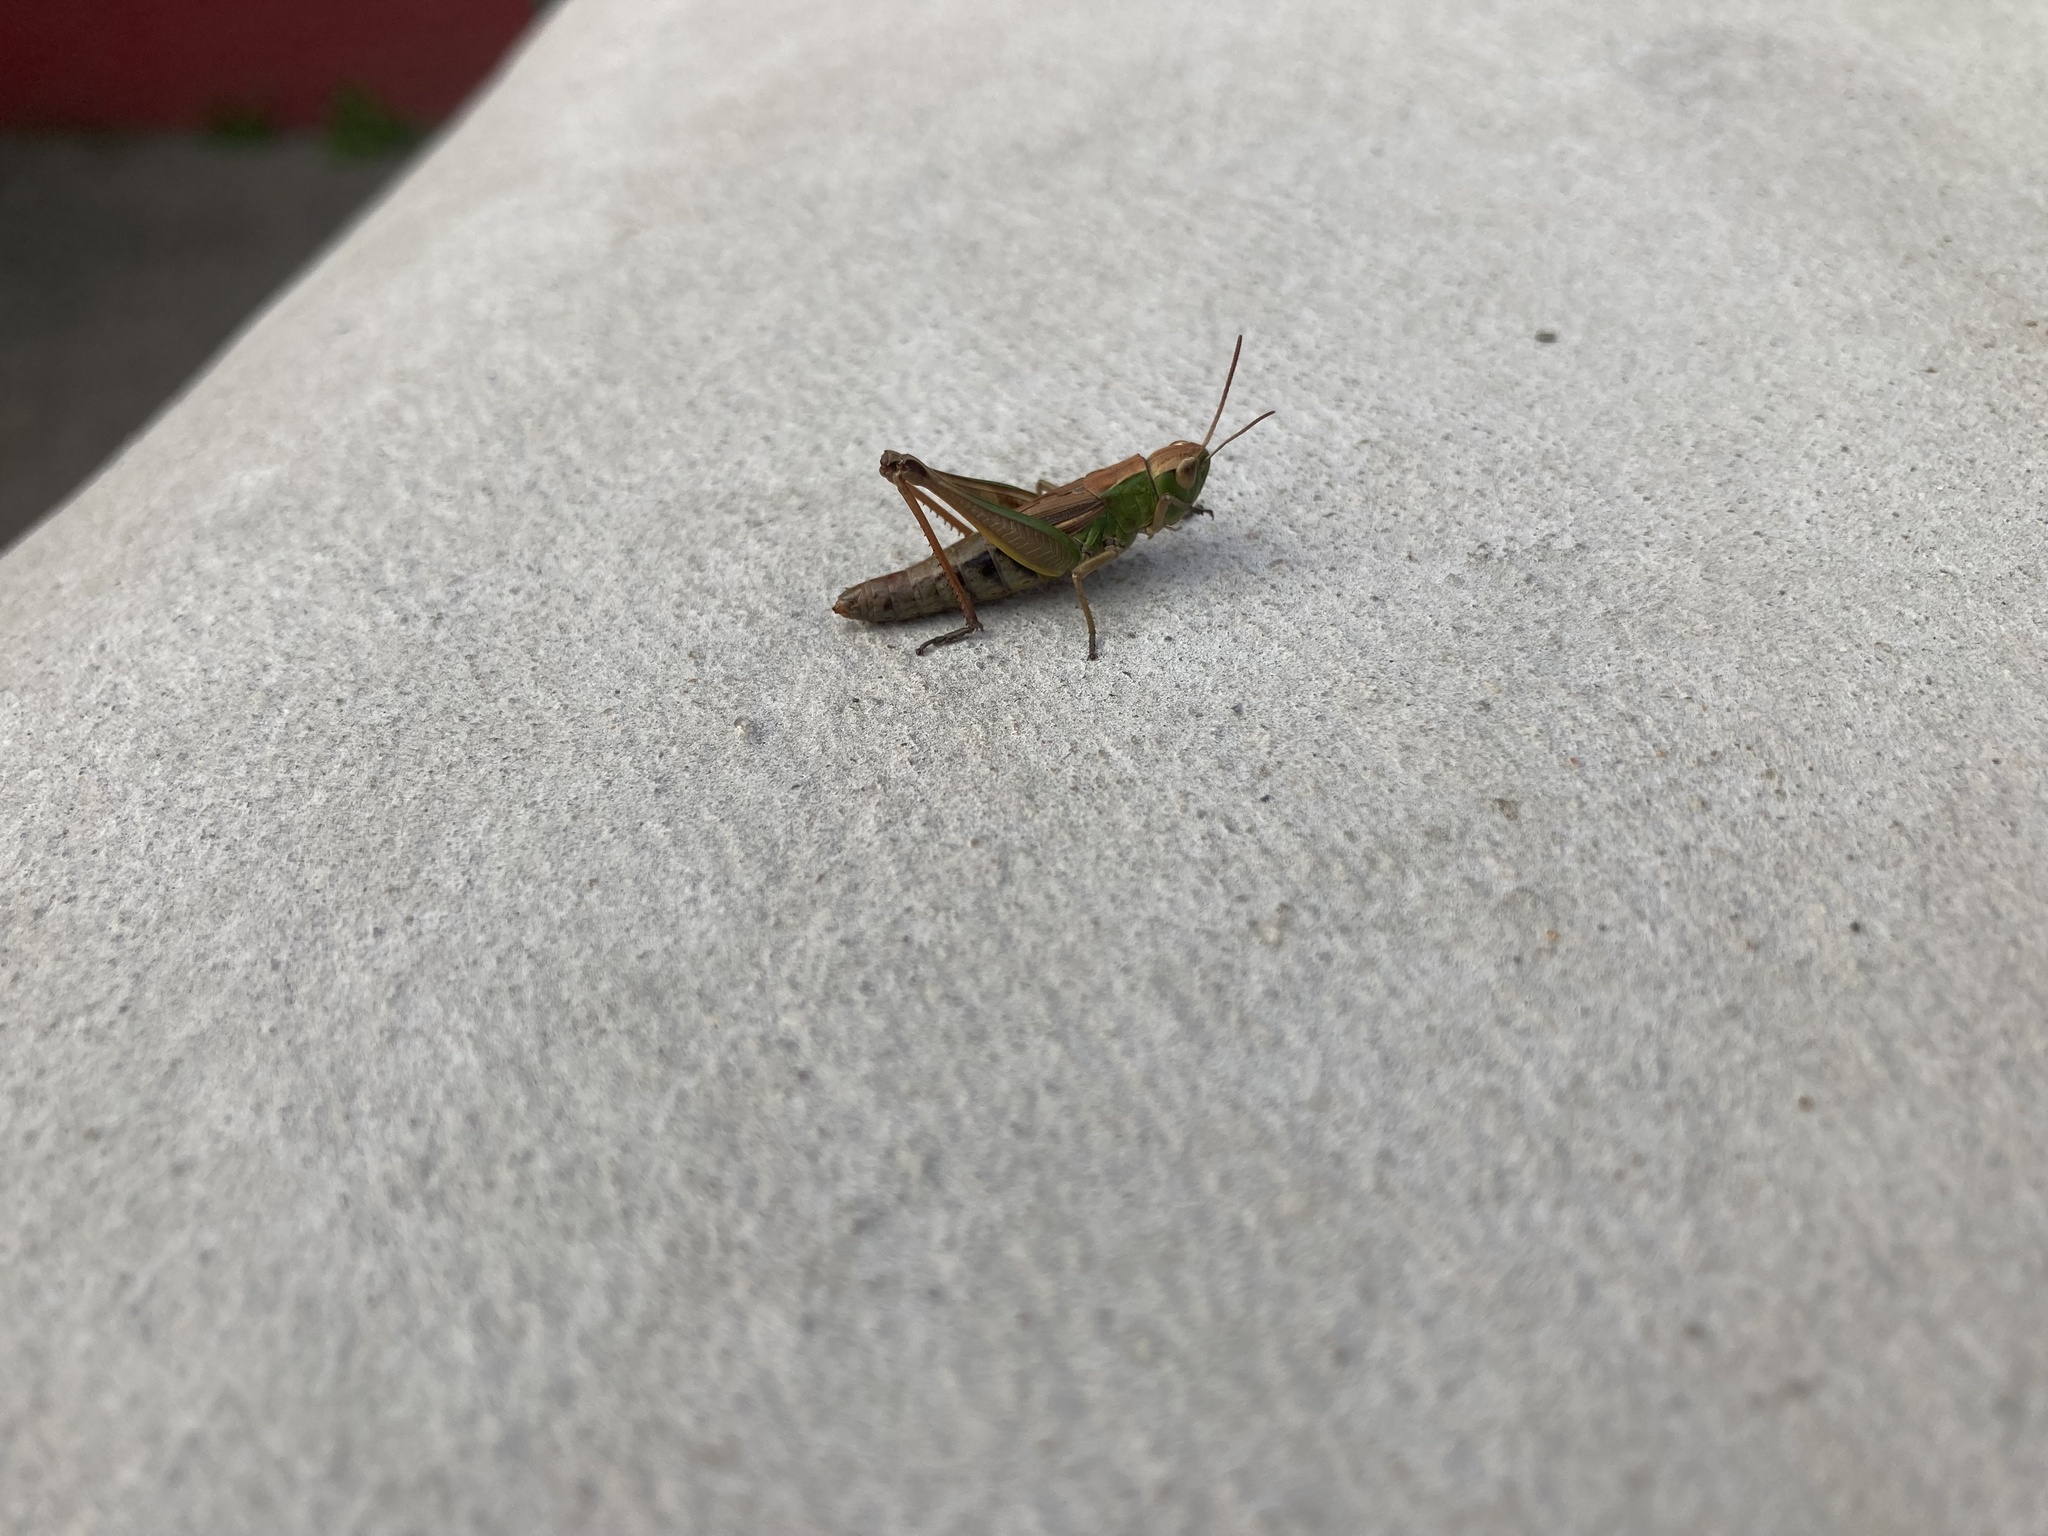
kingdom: Animalia
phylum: Arthropoda
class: Insecta
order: Orthoptera
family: Acrididae
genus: Pseudochorthippus
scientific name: Pseudochorthippus parallelus
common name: Meadow grasshopper
